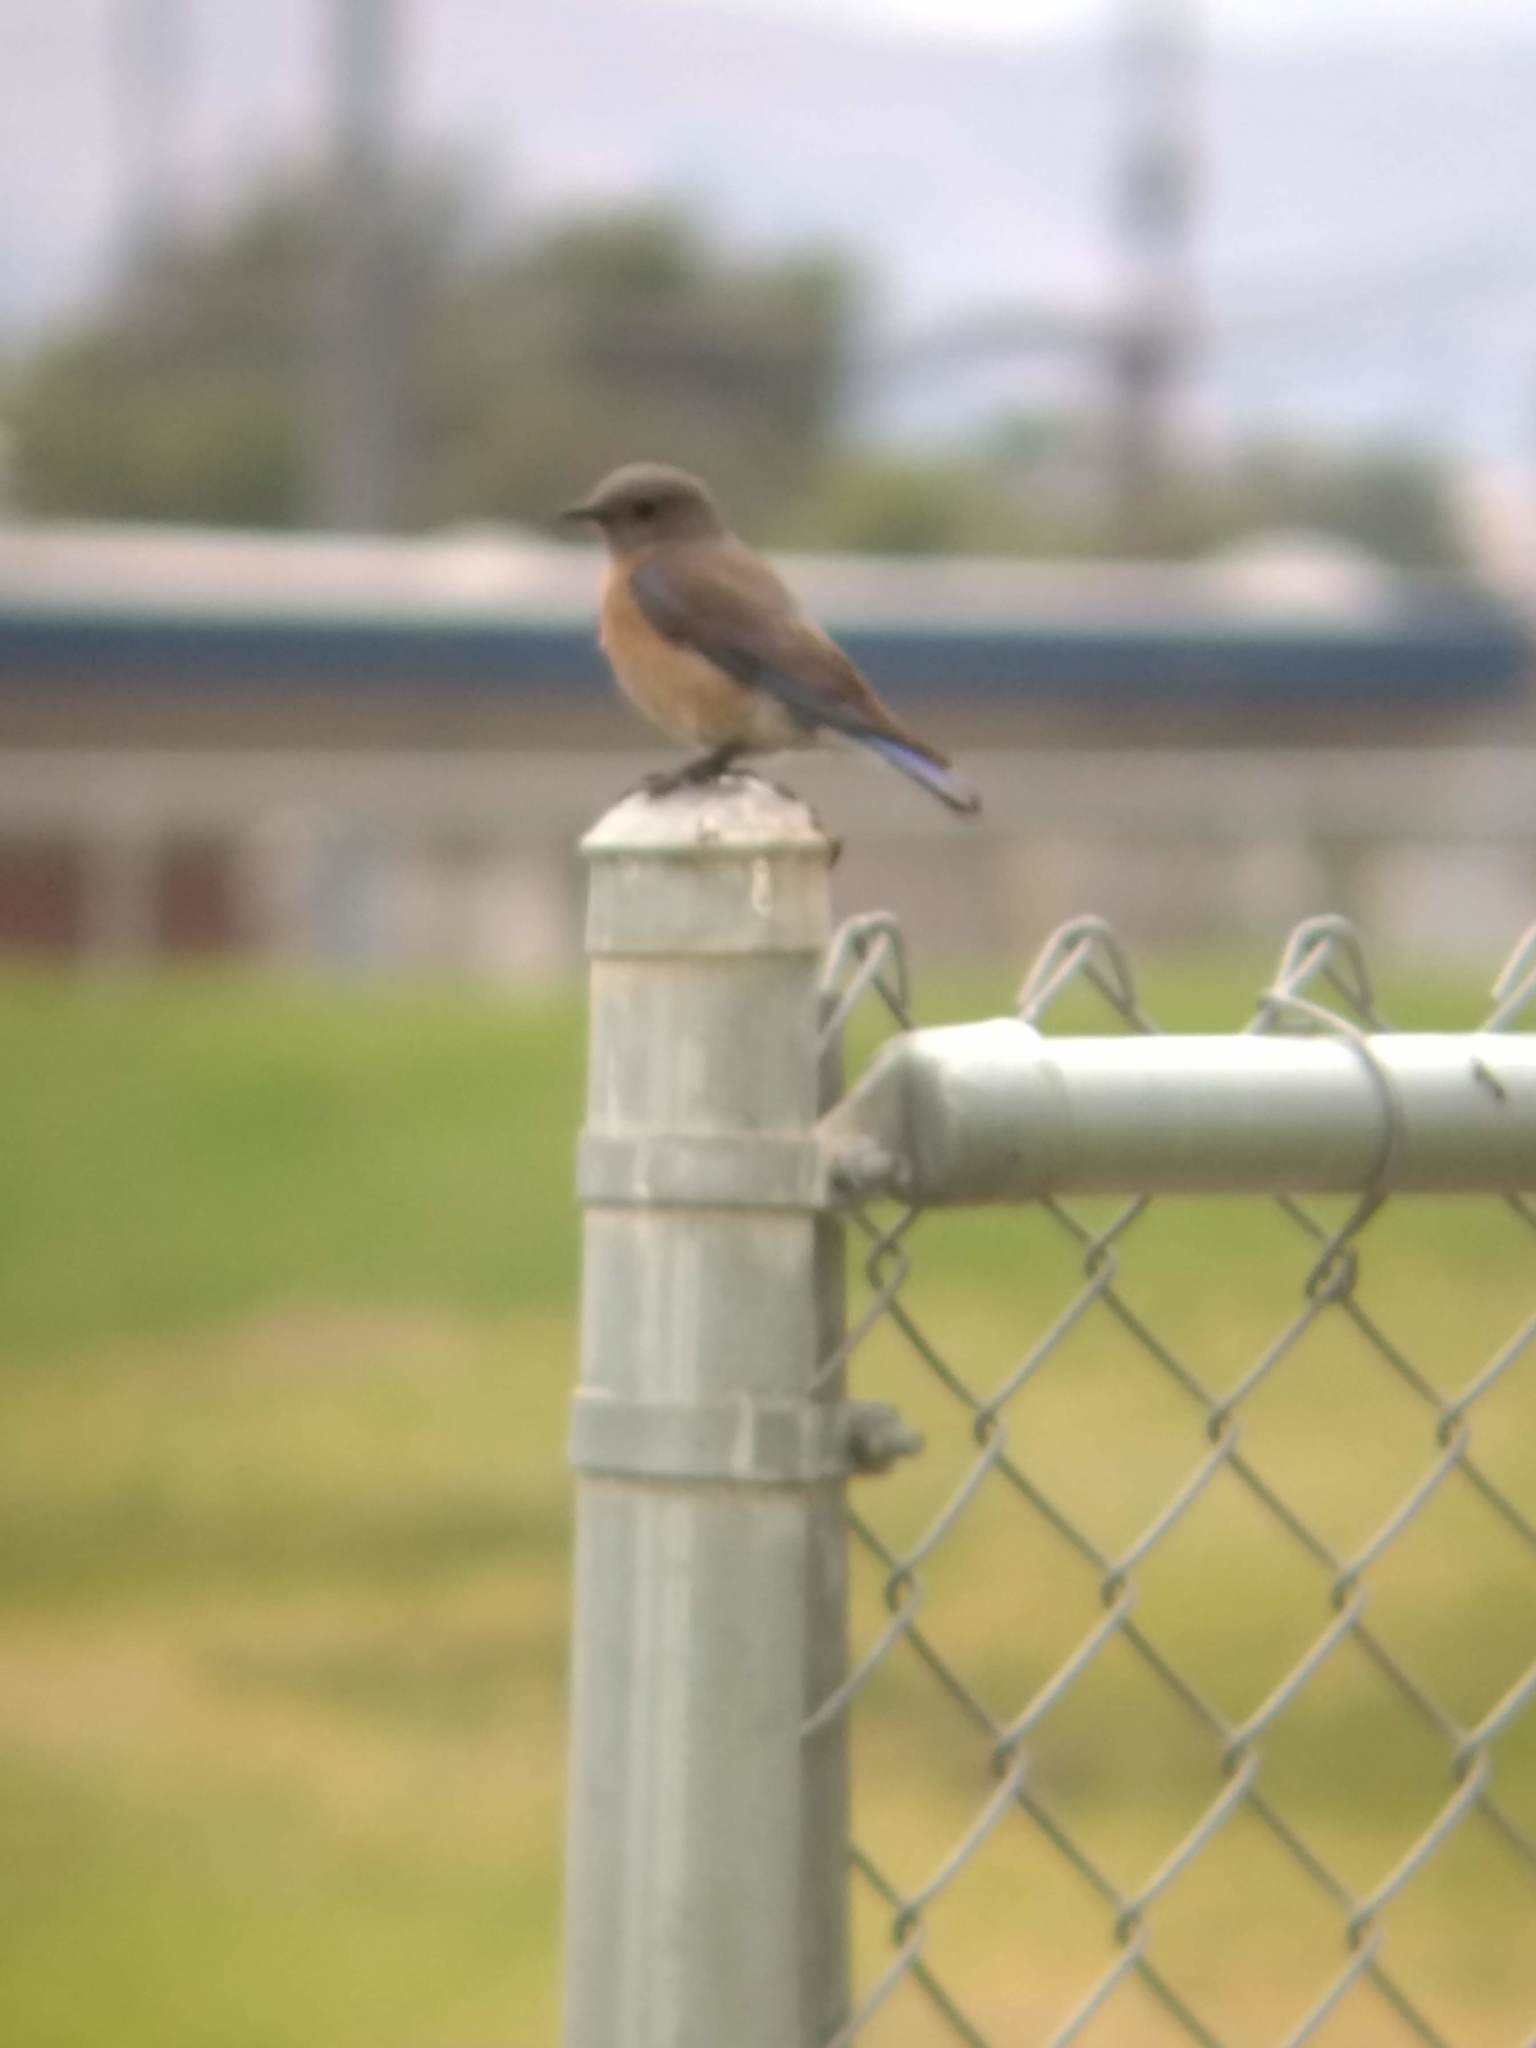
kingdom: Animalia
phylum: Chordata
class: Aves
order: Passeriformes
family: Turdidae
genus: Sialia
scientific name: Sialia mexicana
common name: Western bluebird
